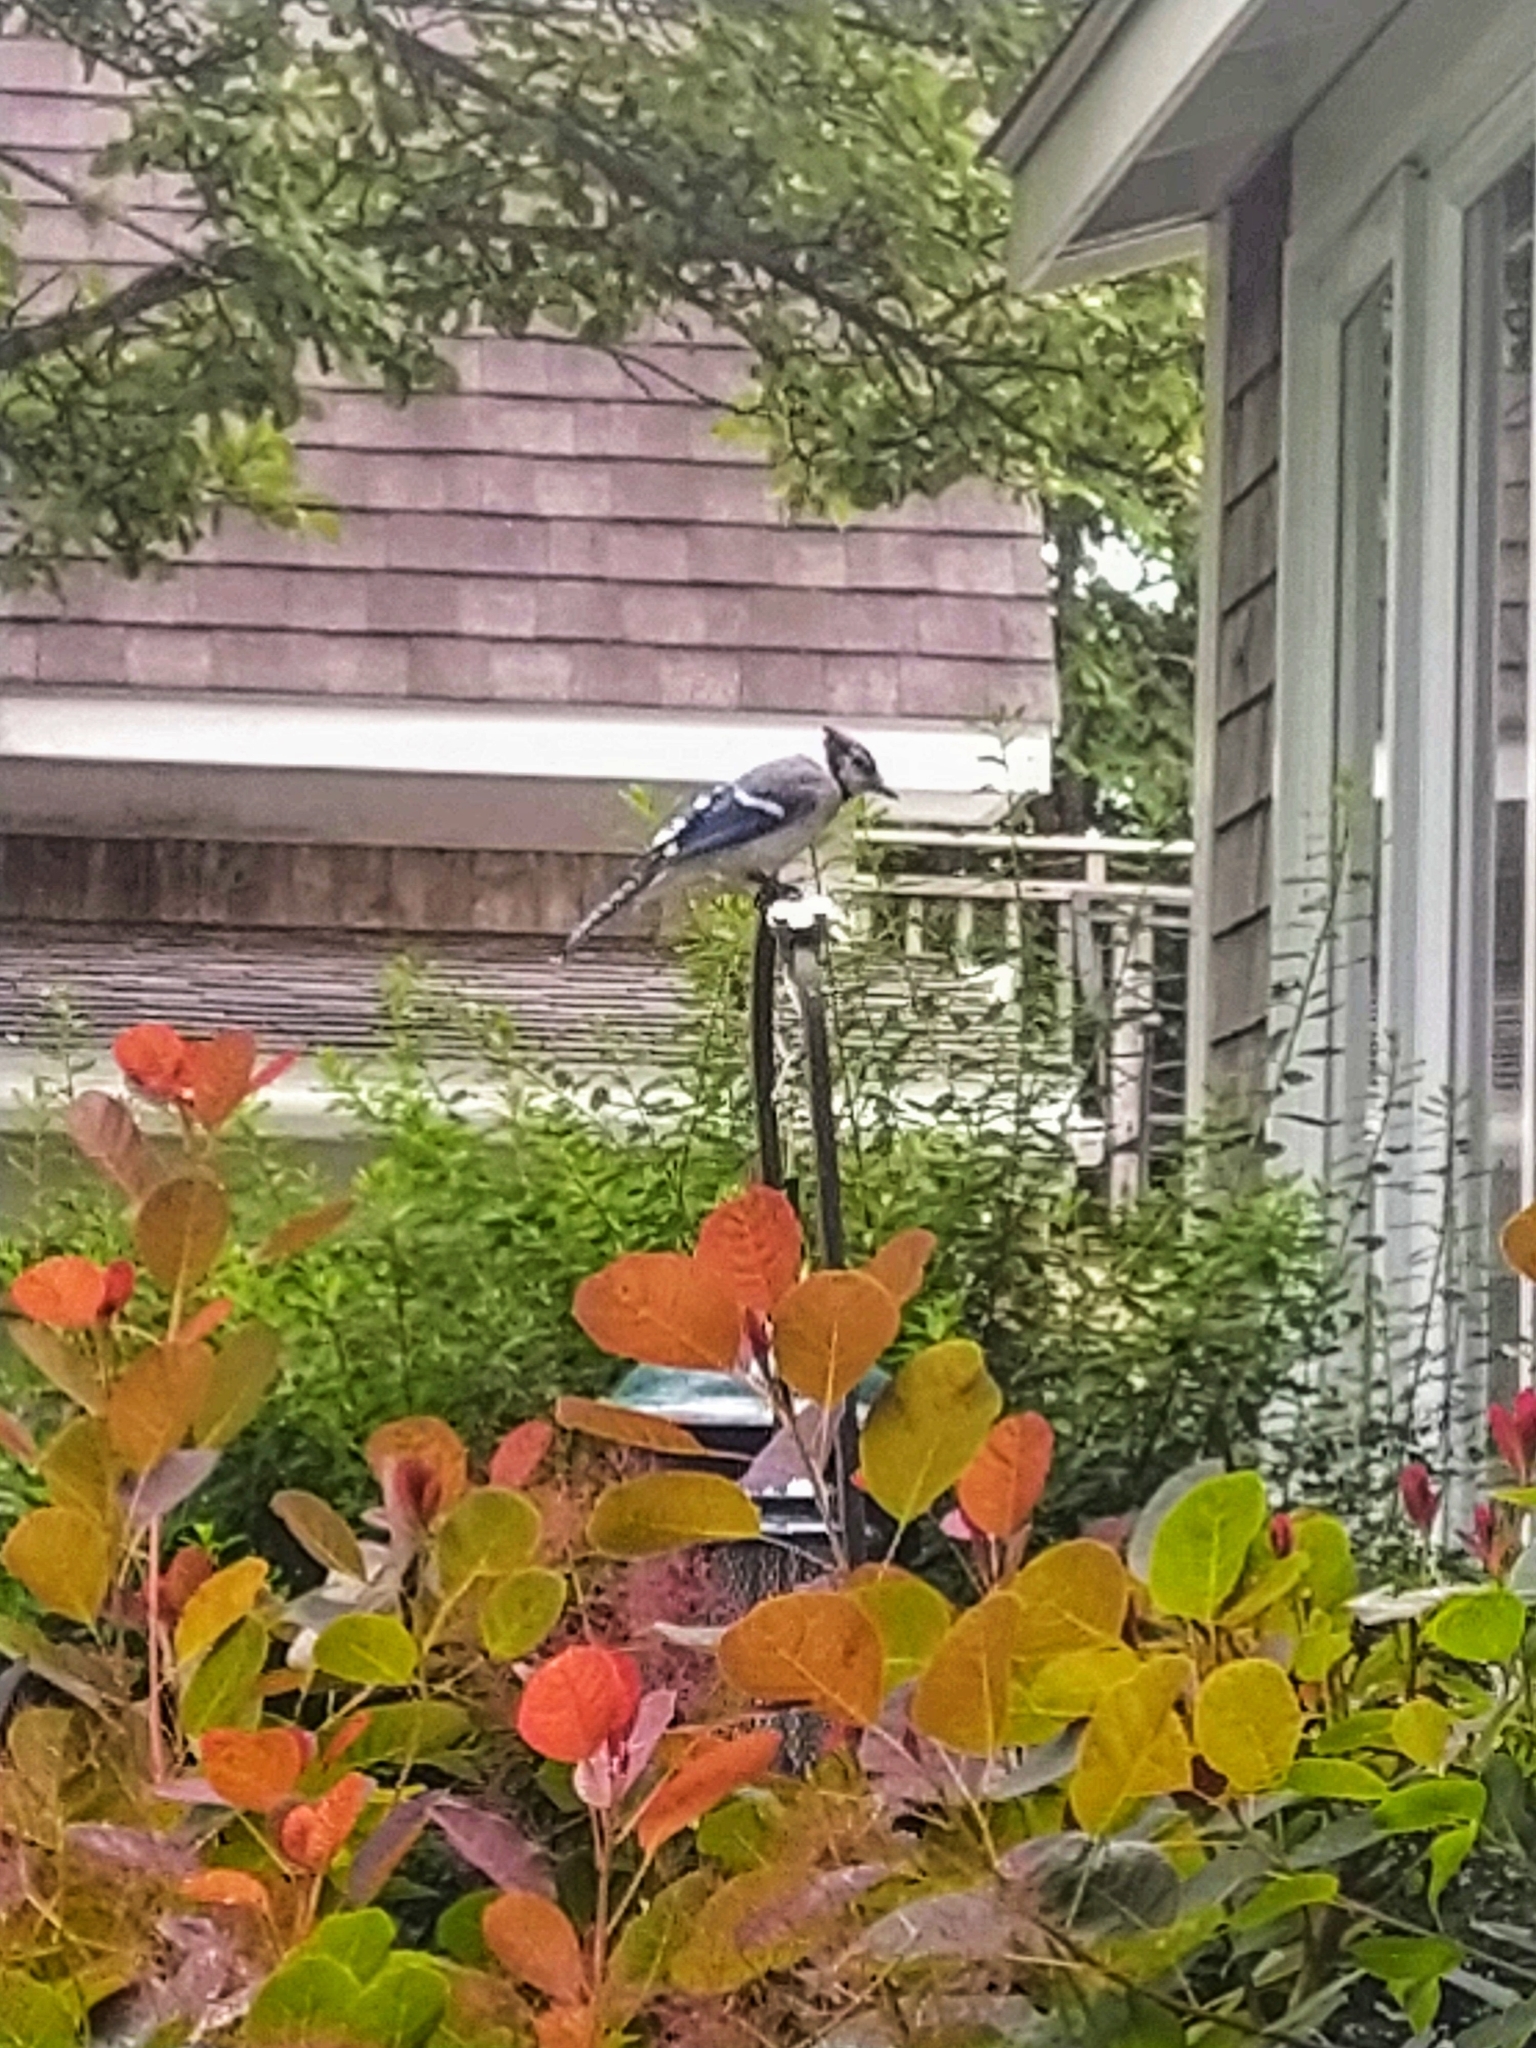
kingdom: Animalia
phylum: Chordata
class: Aves
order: Passeriformes
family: Corvidae
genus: Cyanocitta
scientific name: Cyanocitta cristata
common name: Blue jay
